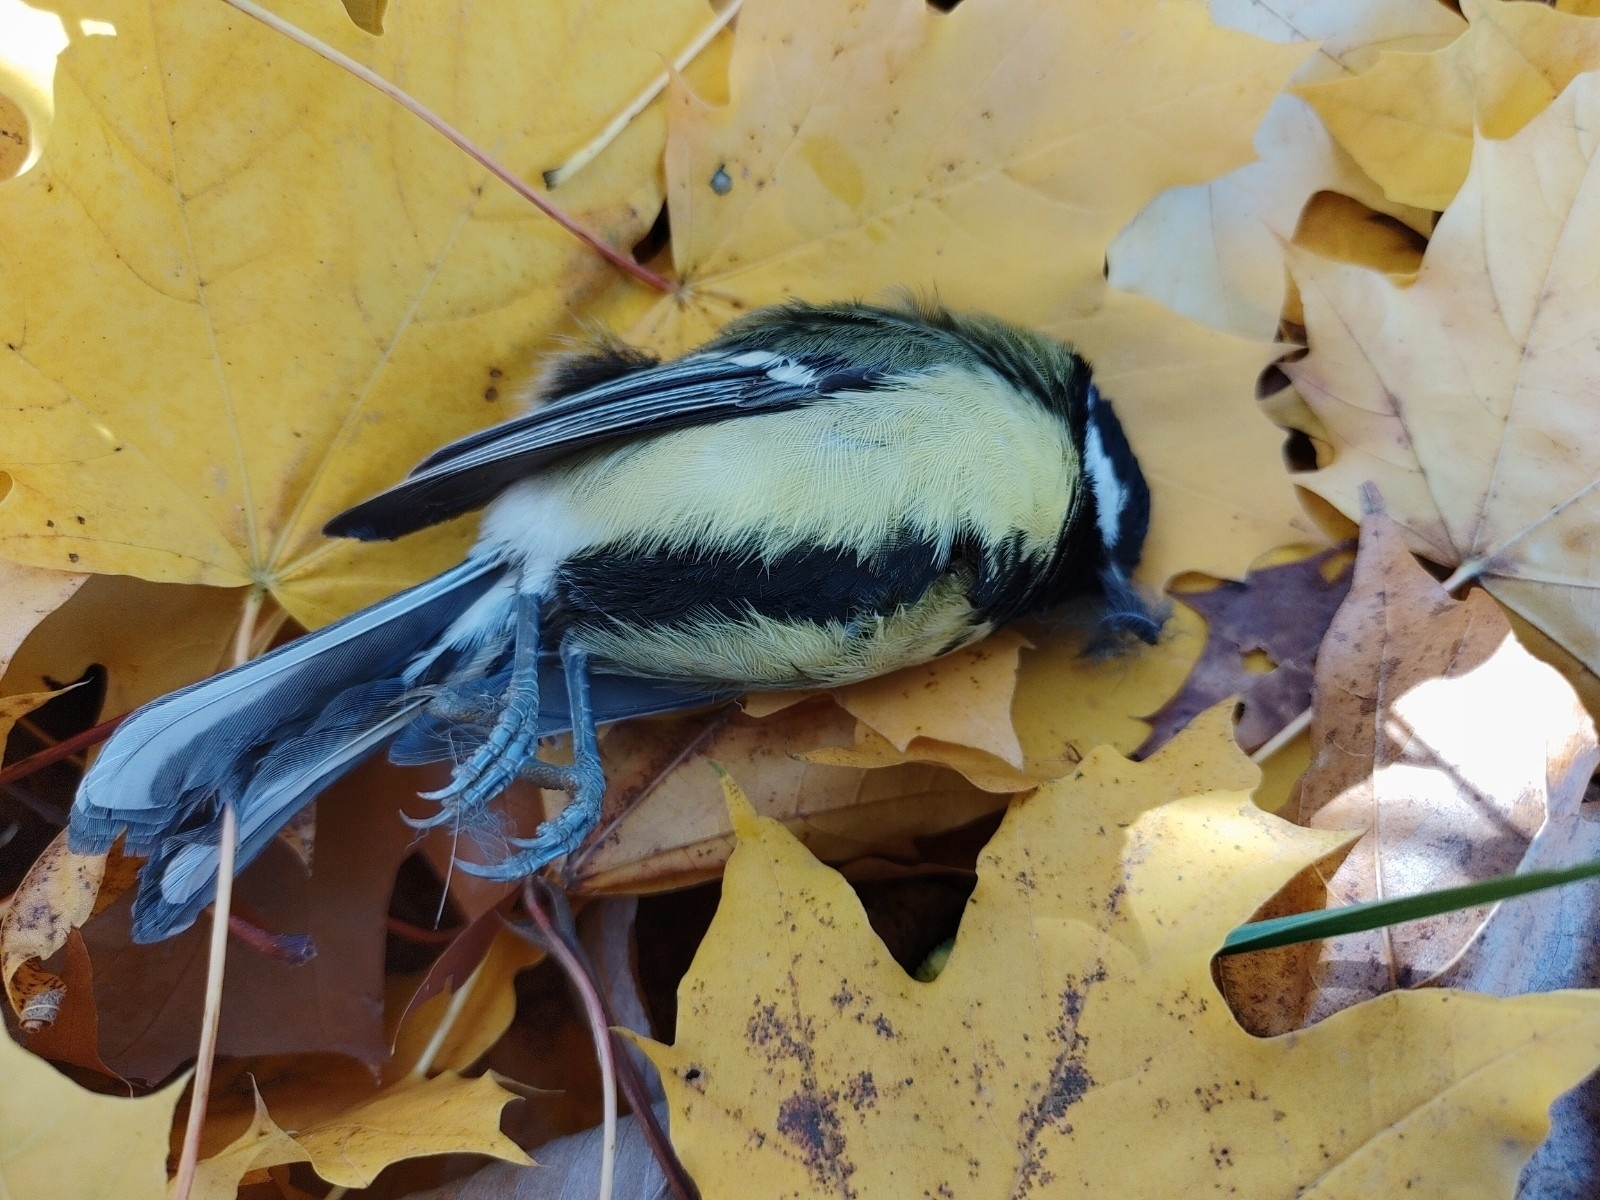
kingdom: Animalia
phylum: Chordata
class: Aves
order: Passeriformes
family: Paridae
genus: Parus
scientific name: Parus major
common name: Great tit
